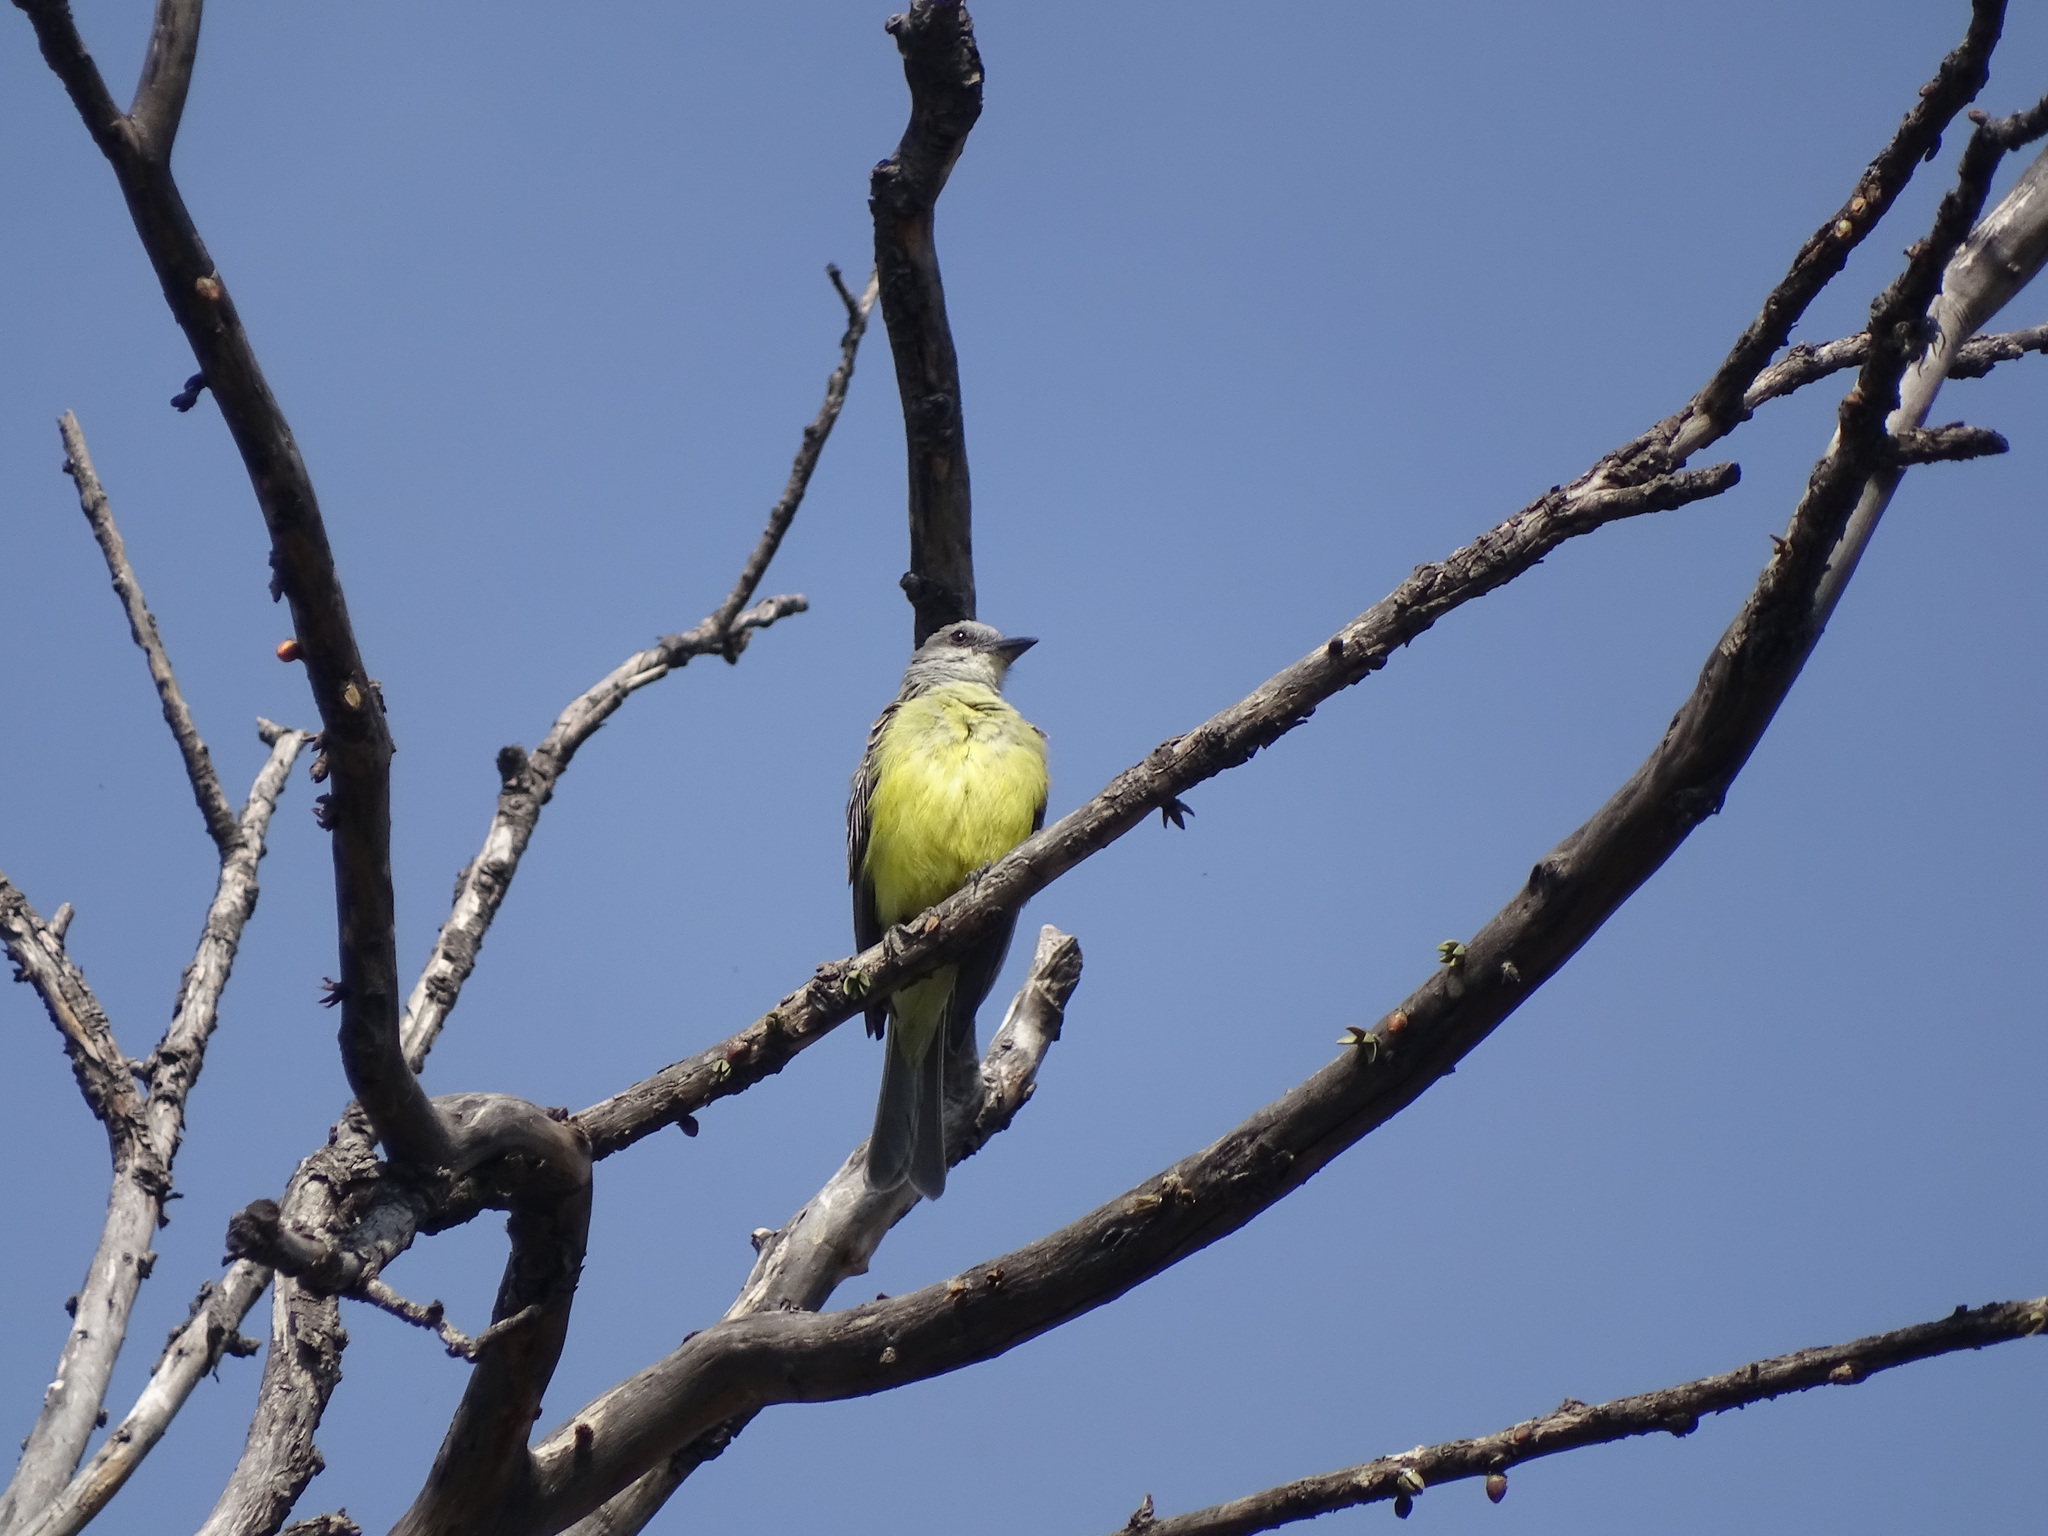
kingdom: Animalia
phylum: Chordata
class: Aves
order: Passeriformes
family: Tyrannidae
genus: Tyrannus
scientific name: Tyrannus melancholicus
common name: Tropical kingbird
